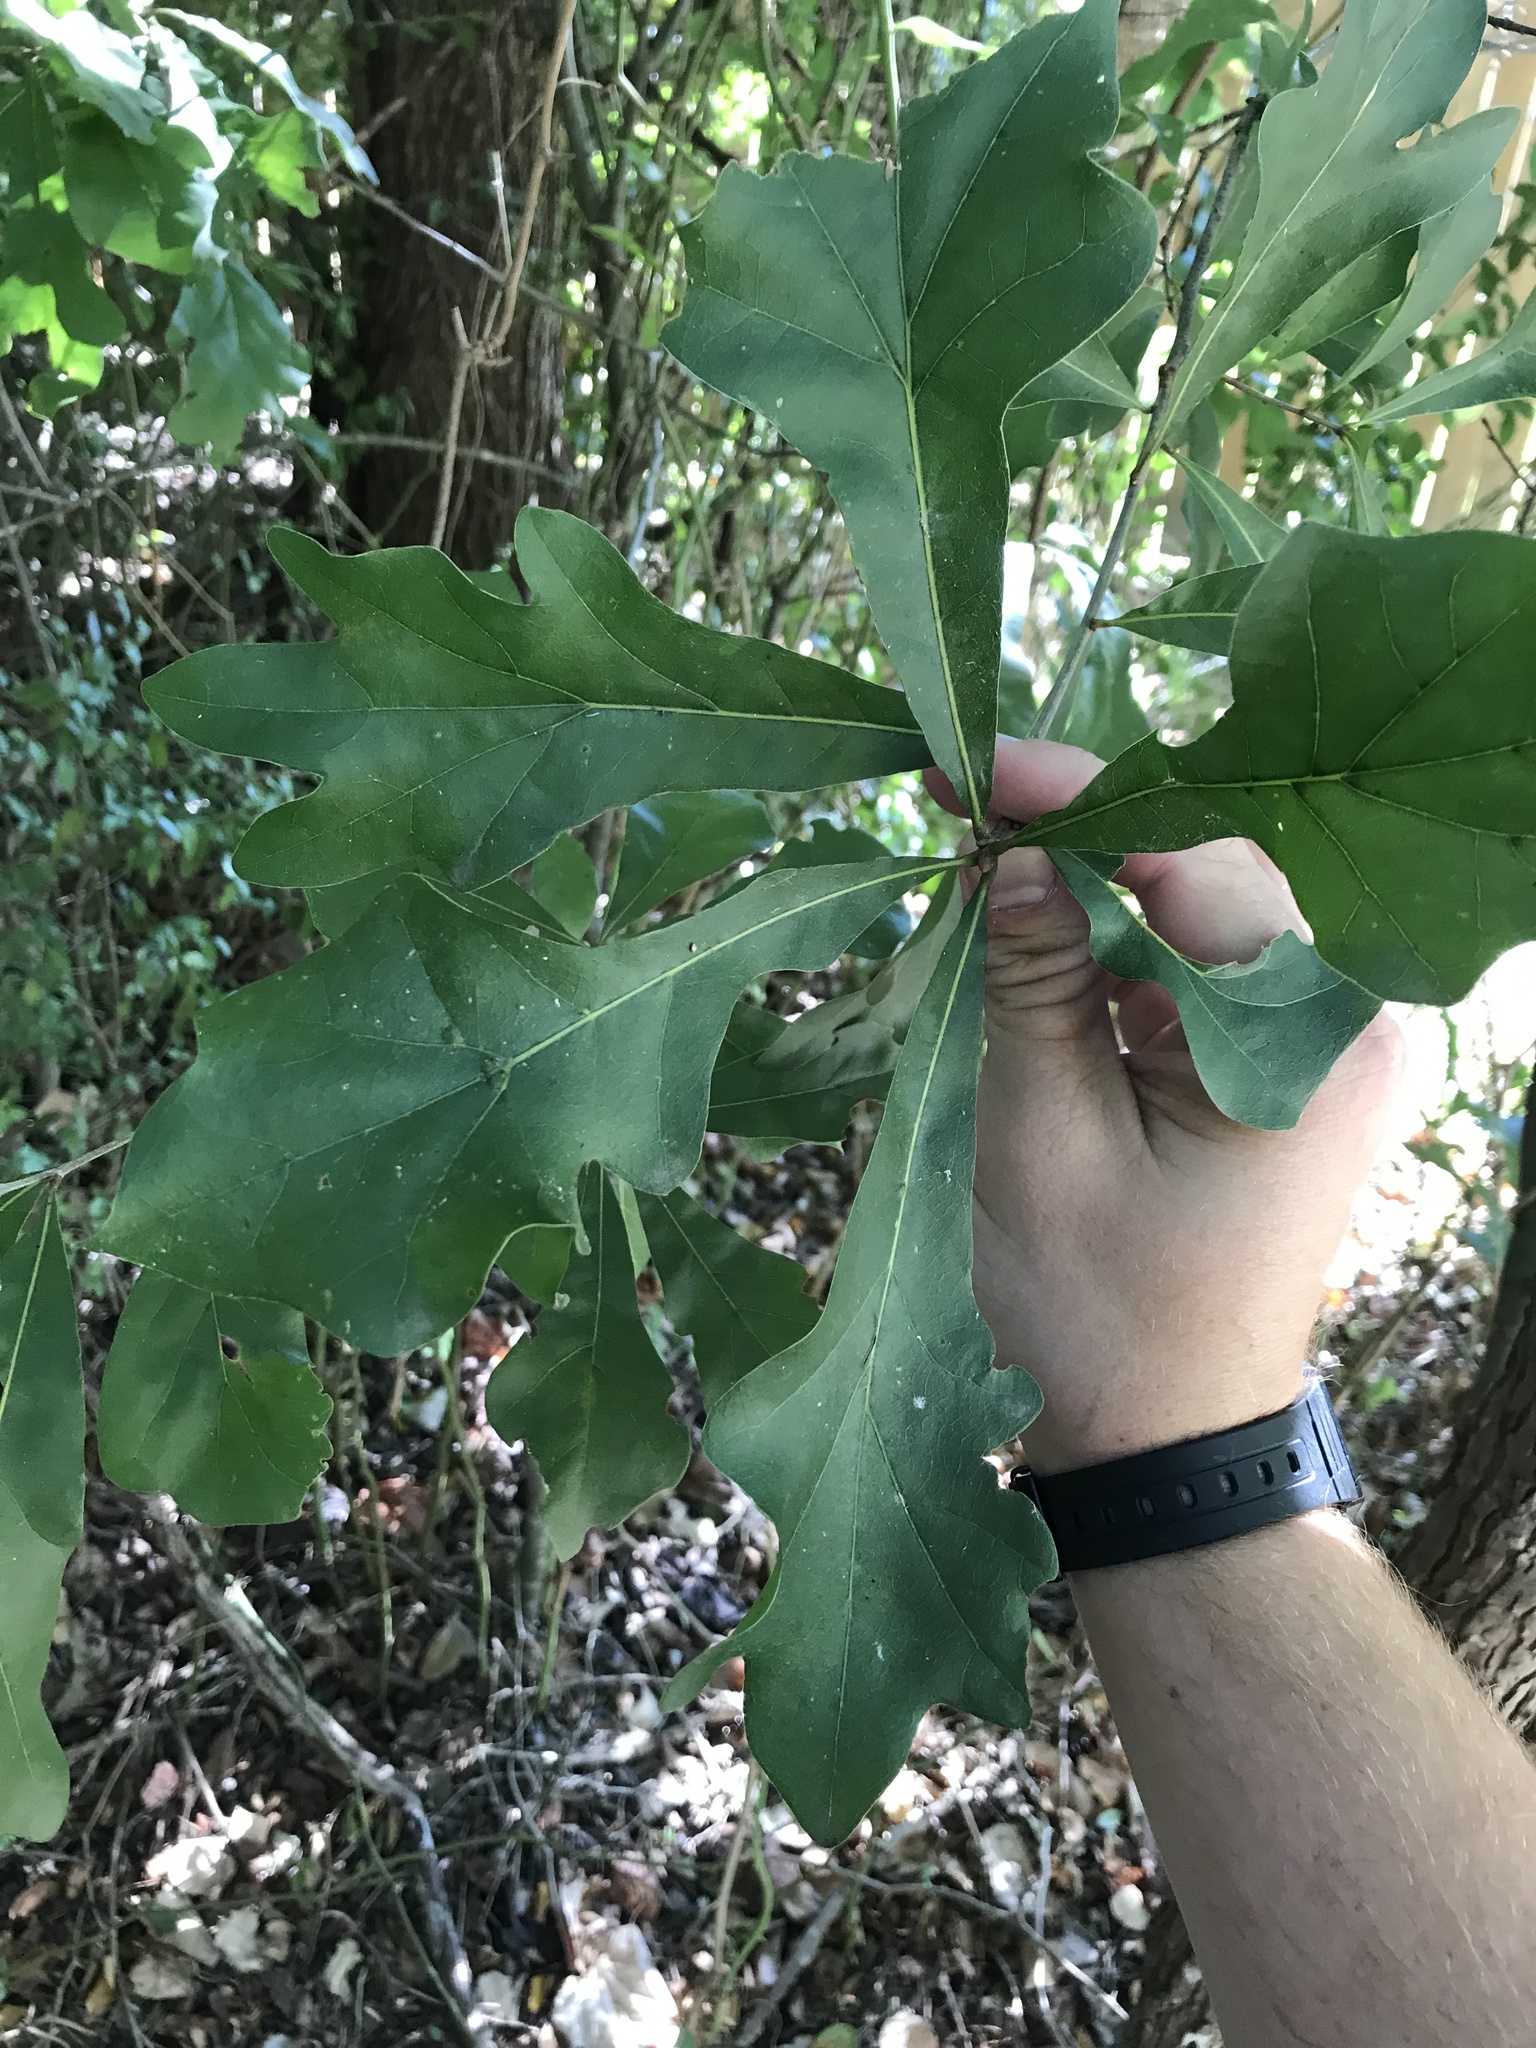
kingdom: Plantae
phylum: Tracheophyta
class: Magnoliopsida
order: Fagales
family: Fagaceae
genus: Quercus
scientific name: Quercus nigra
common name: Water oak
